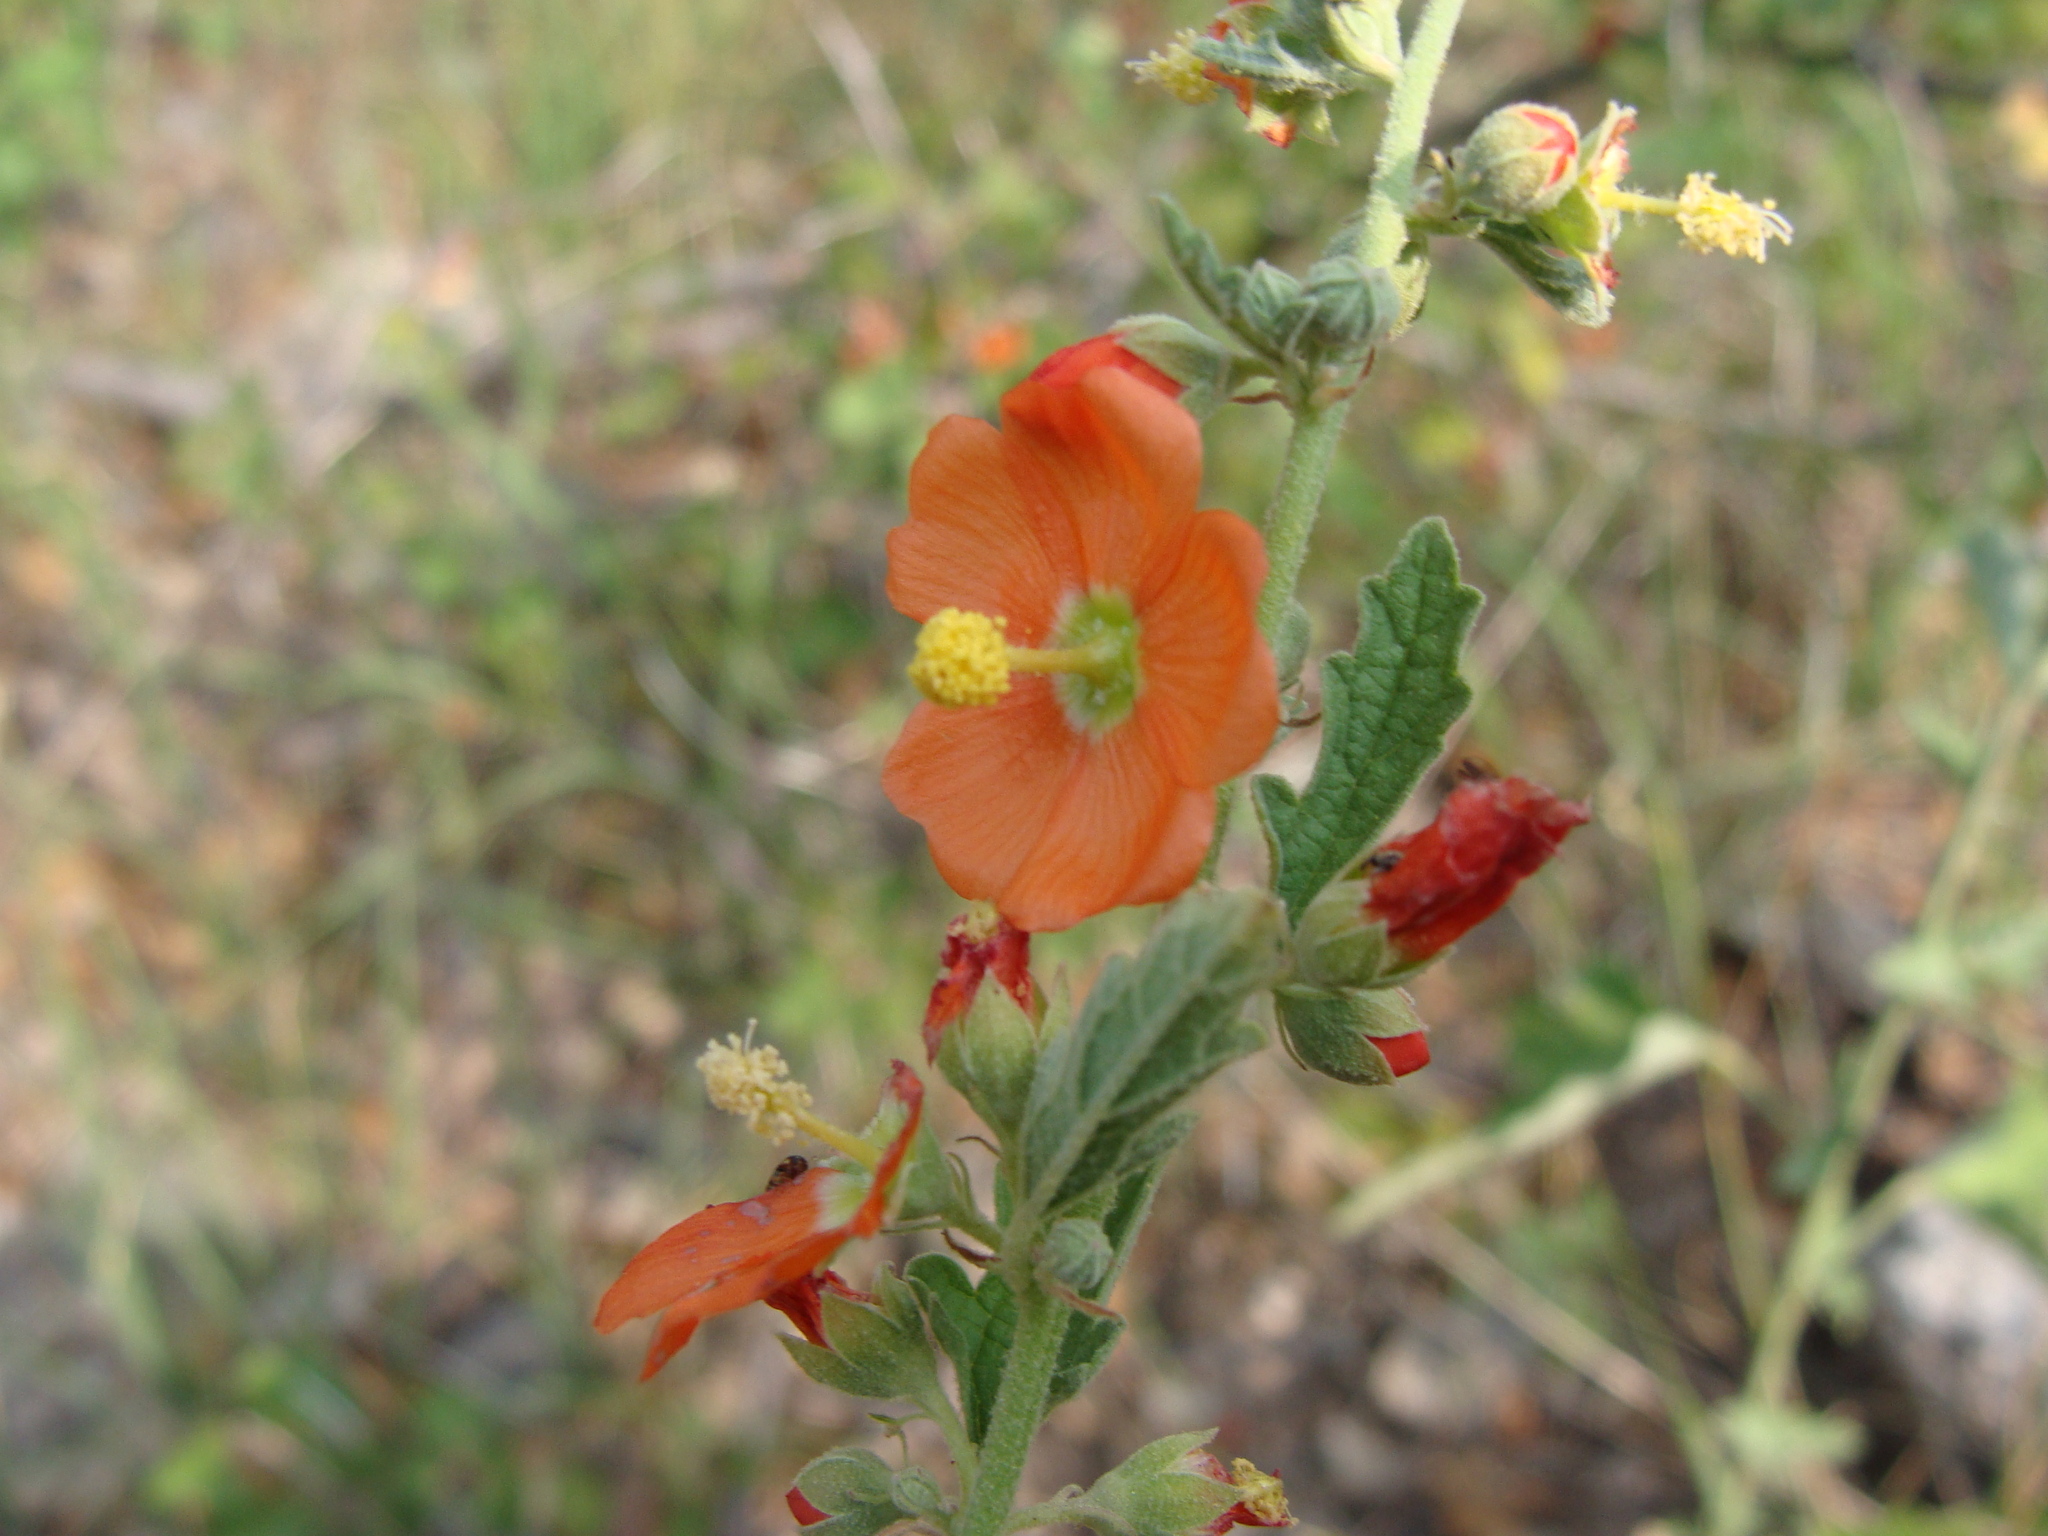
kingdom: Plantae
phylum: Tracheophyta
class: Magnoliopsida
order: Malvales
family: Malvaceae
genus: Sphaeralcea
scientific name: Sphaeralcea fendleri
